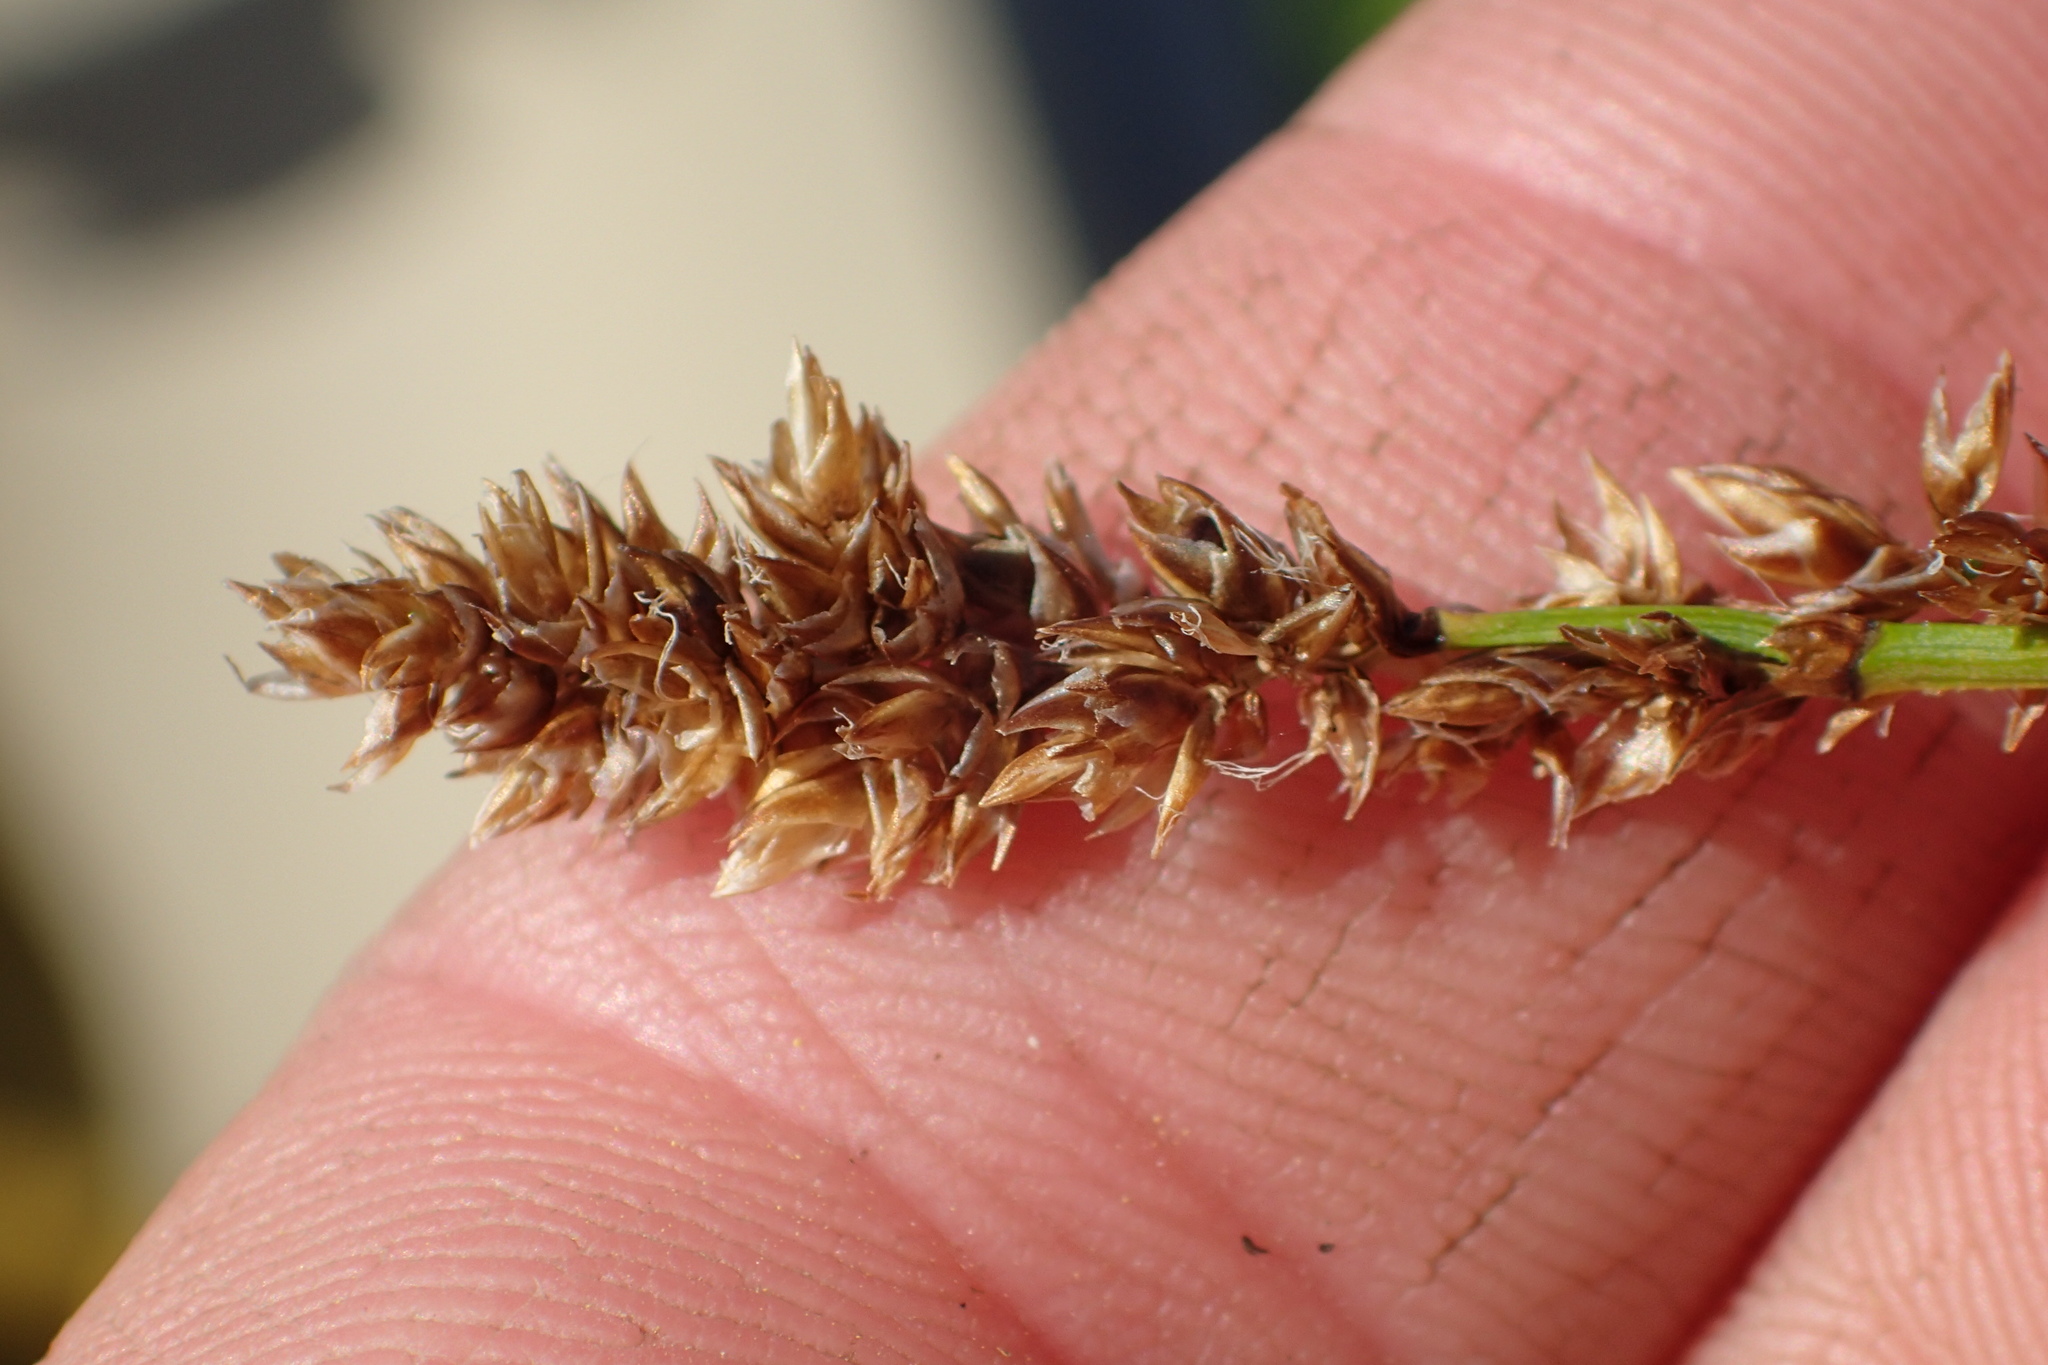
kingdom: Plantae
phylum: Tracheophyta
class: Liliopsida
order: Poales
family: Cyperaceae
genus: Carex
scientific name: Carex diandra
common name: Lesser tussock-sedge
